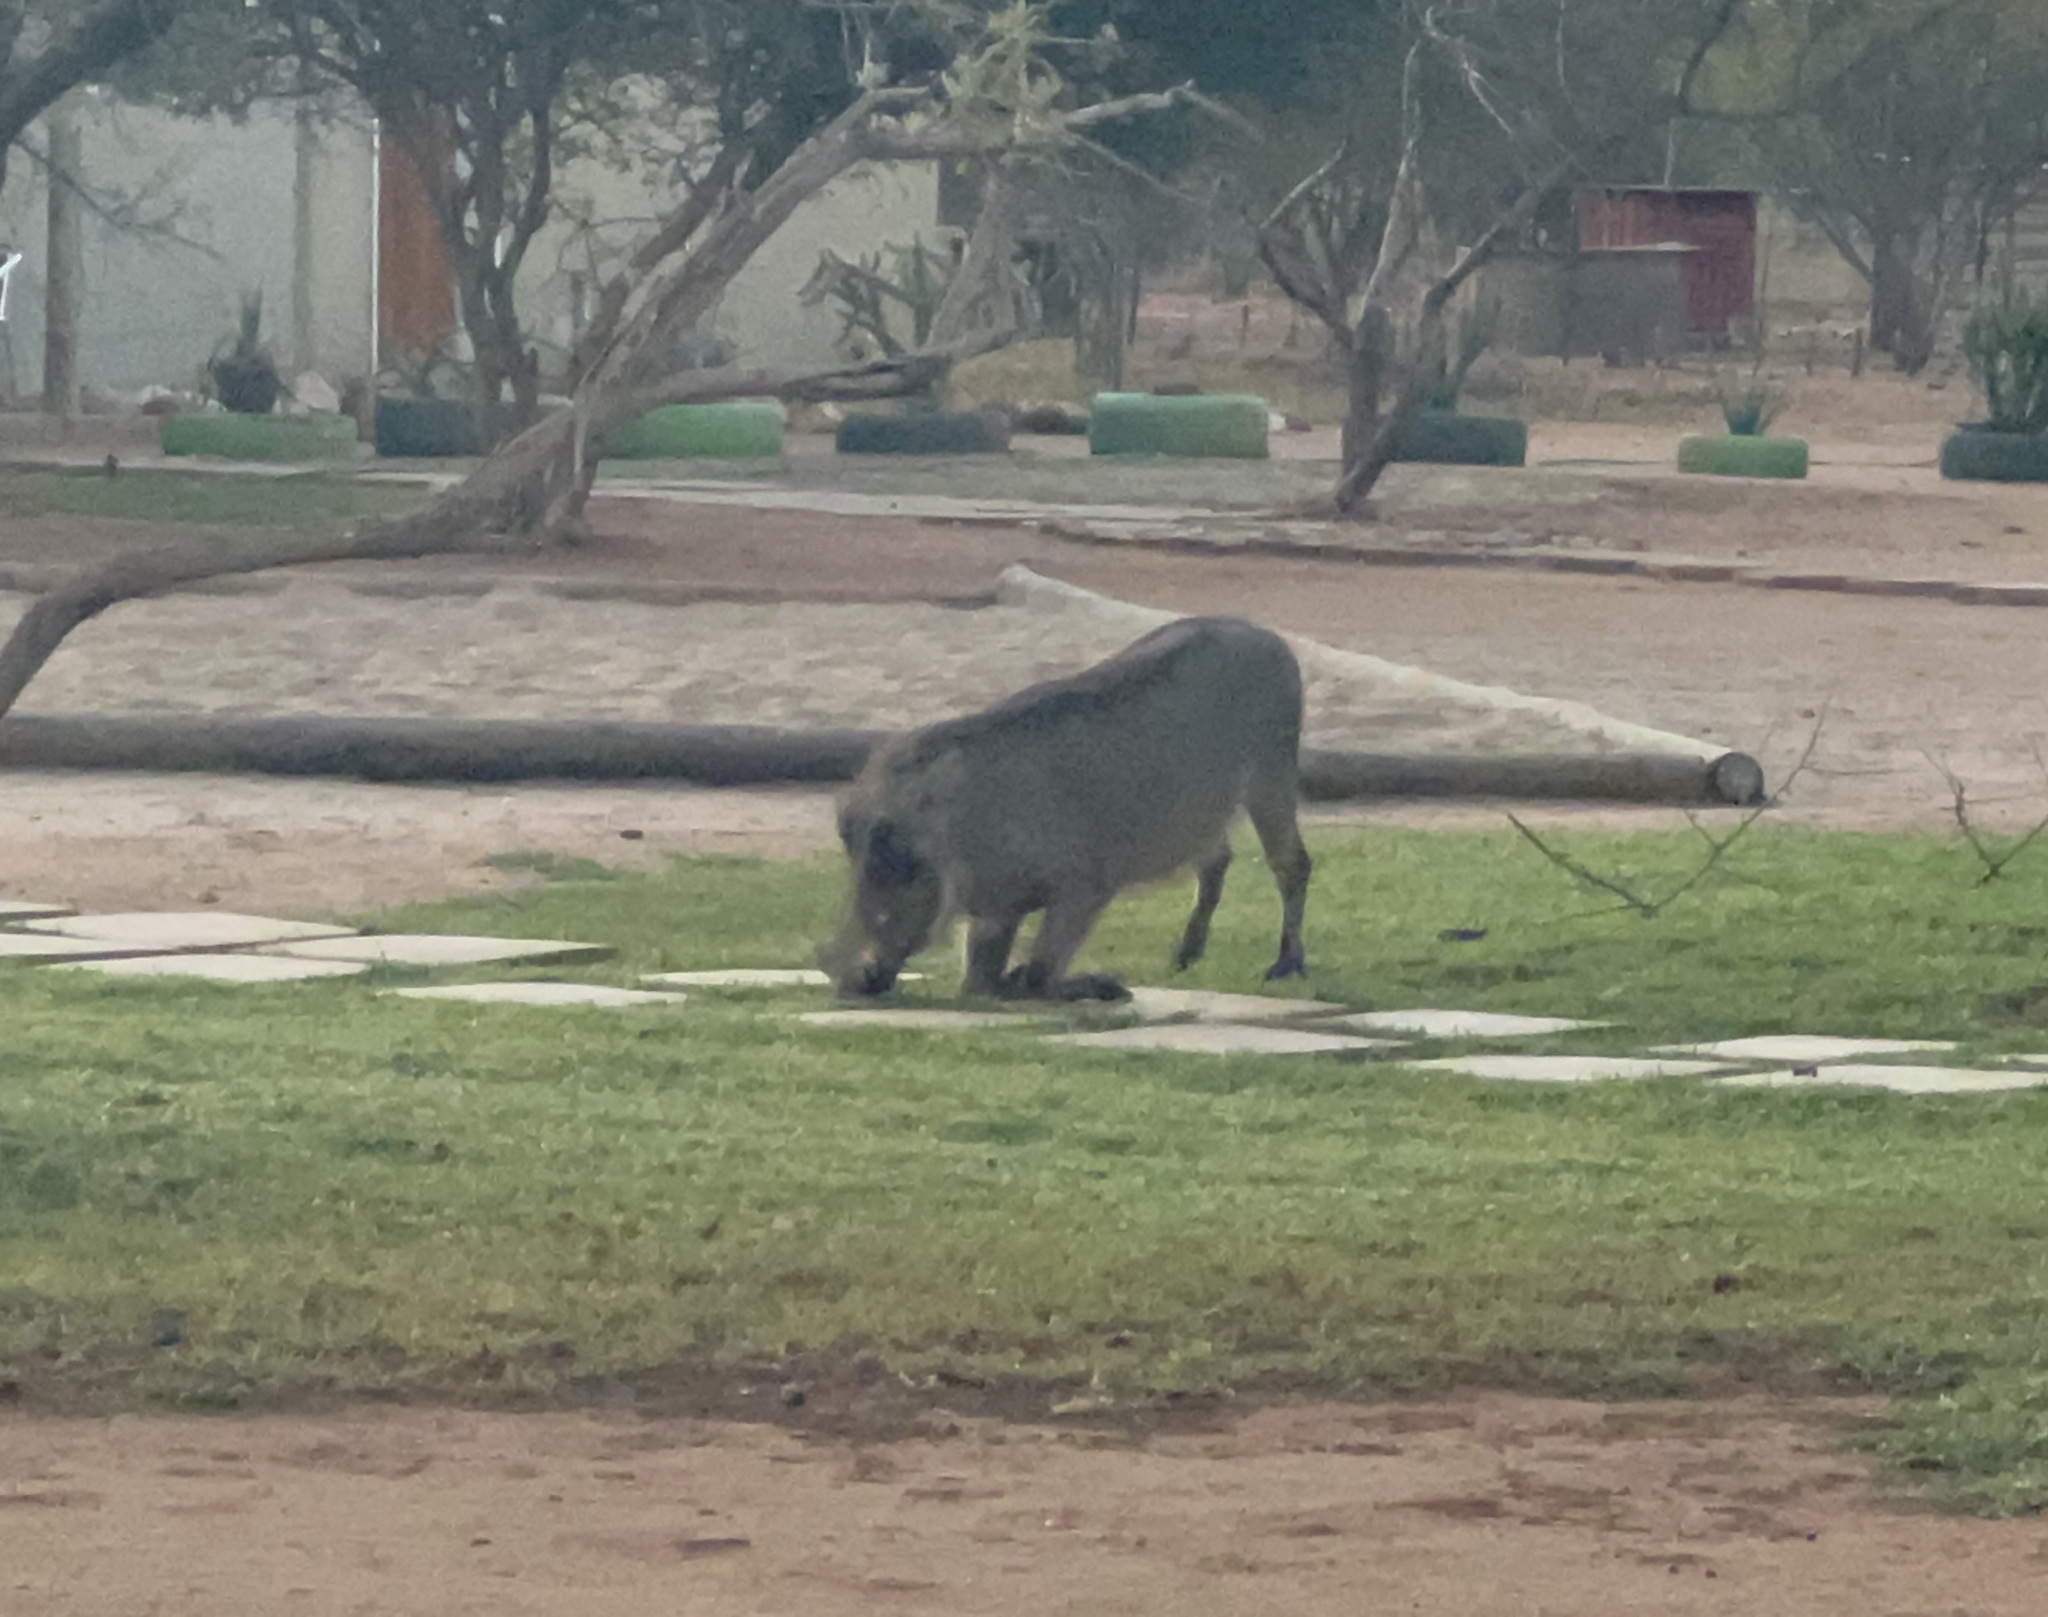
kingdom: Animalia
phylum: Chordata
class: Mammalia
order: Artiodactyla
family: Suidae
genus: Phacochoerus
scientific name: Phacochoerus africanus
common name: Common warthog
